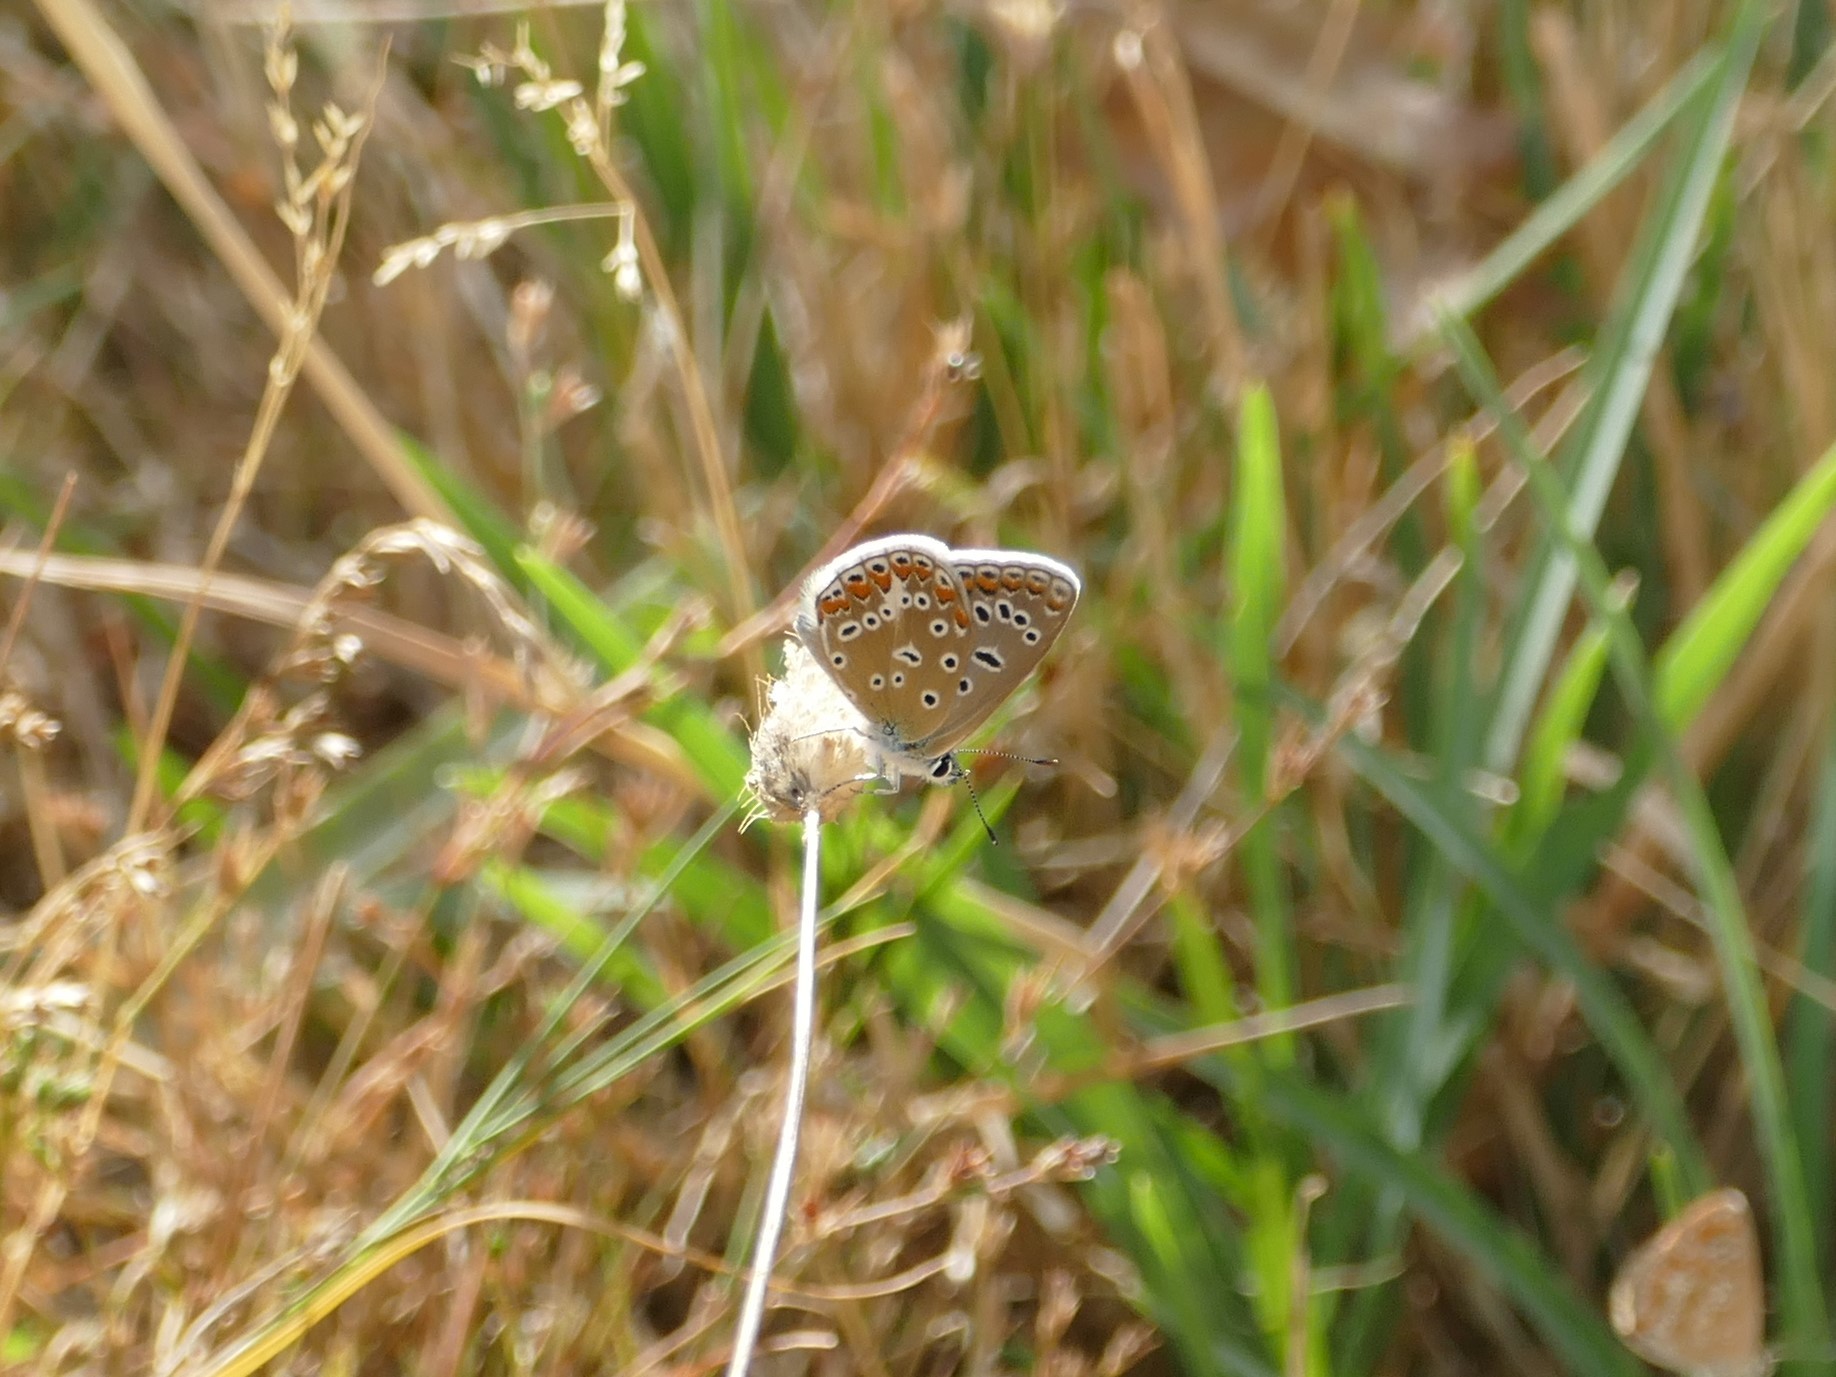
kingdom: Animalia
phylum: Arthropoda
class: Insecta
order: Lepidoptera
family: Lycaenidae
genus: Polyommatus
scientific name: Polyommatus icarus
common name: Common blue
